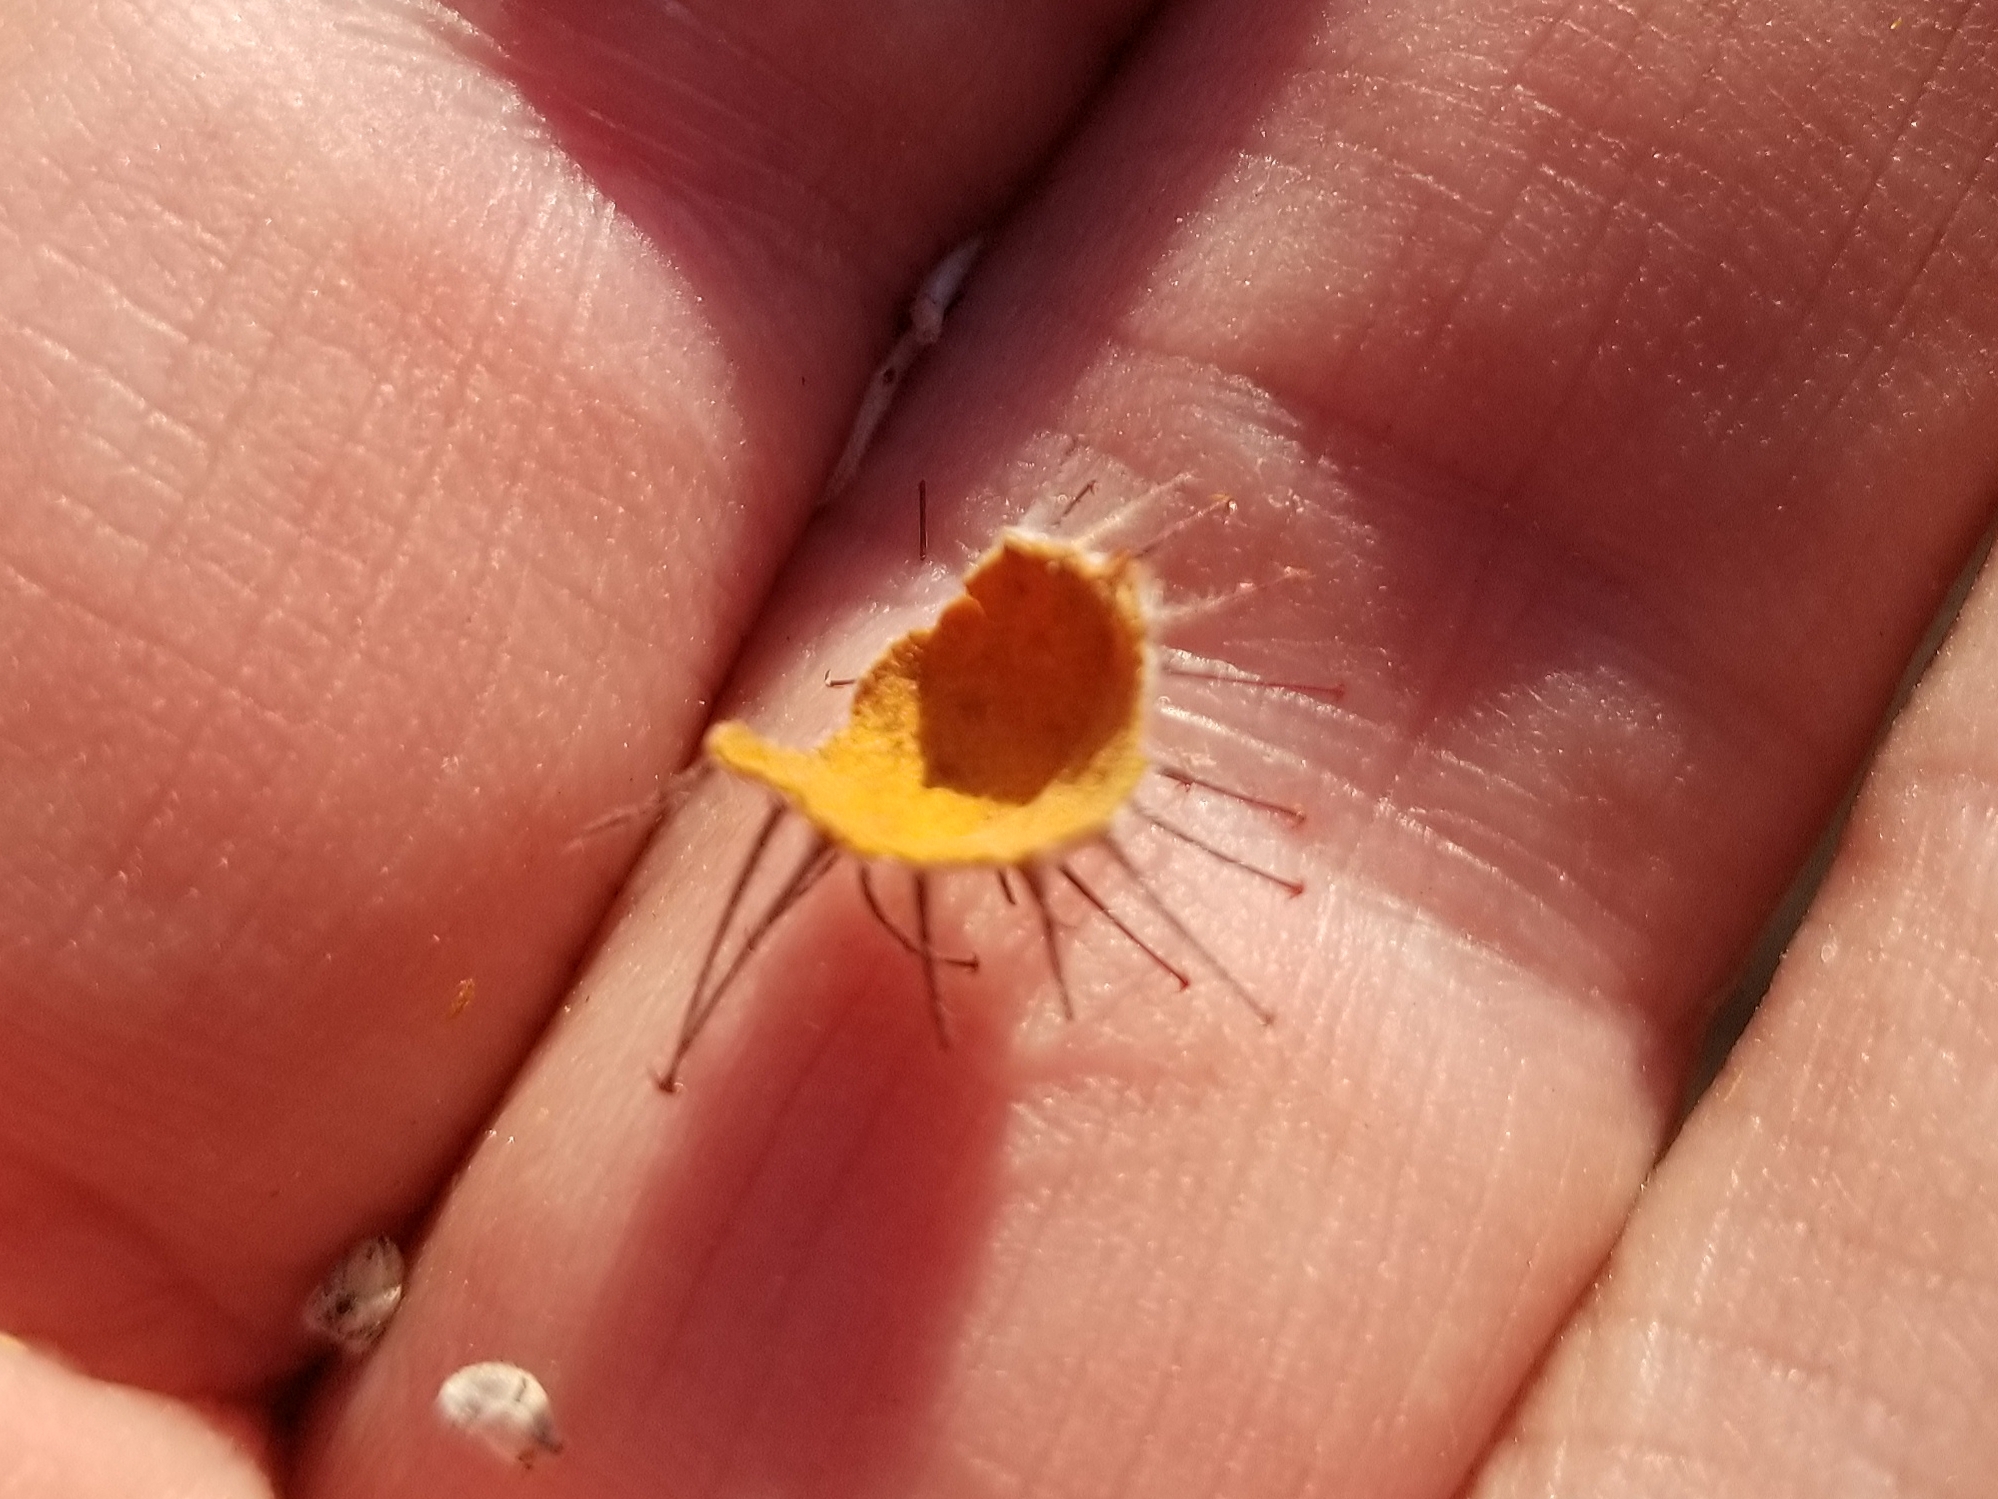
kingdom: Plantae
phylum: Tracheophyta
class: Magnoliopsida
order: Zygophyllales
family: Krameriaceae
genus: Krameria
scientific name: Krameria bicolor
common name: White ratany
